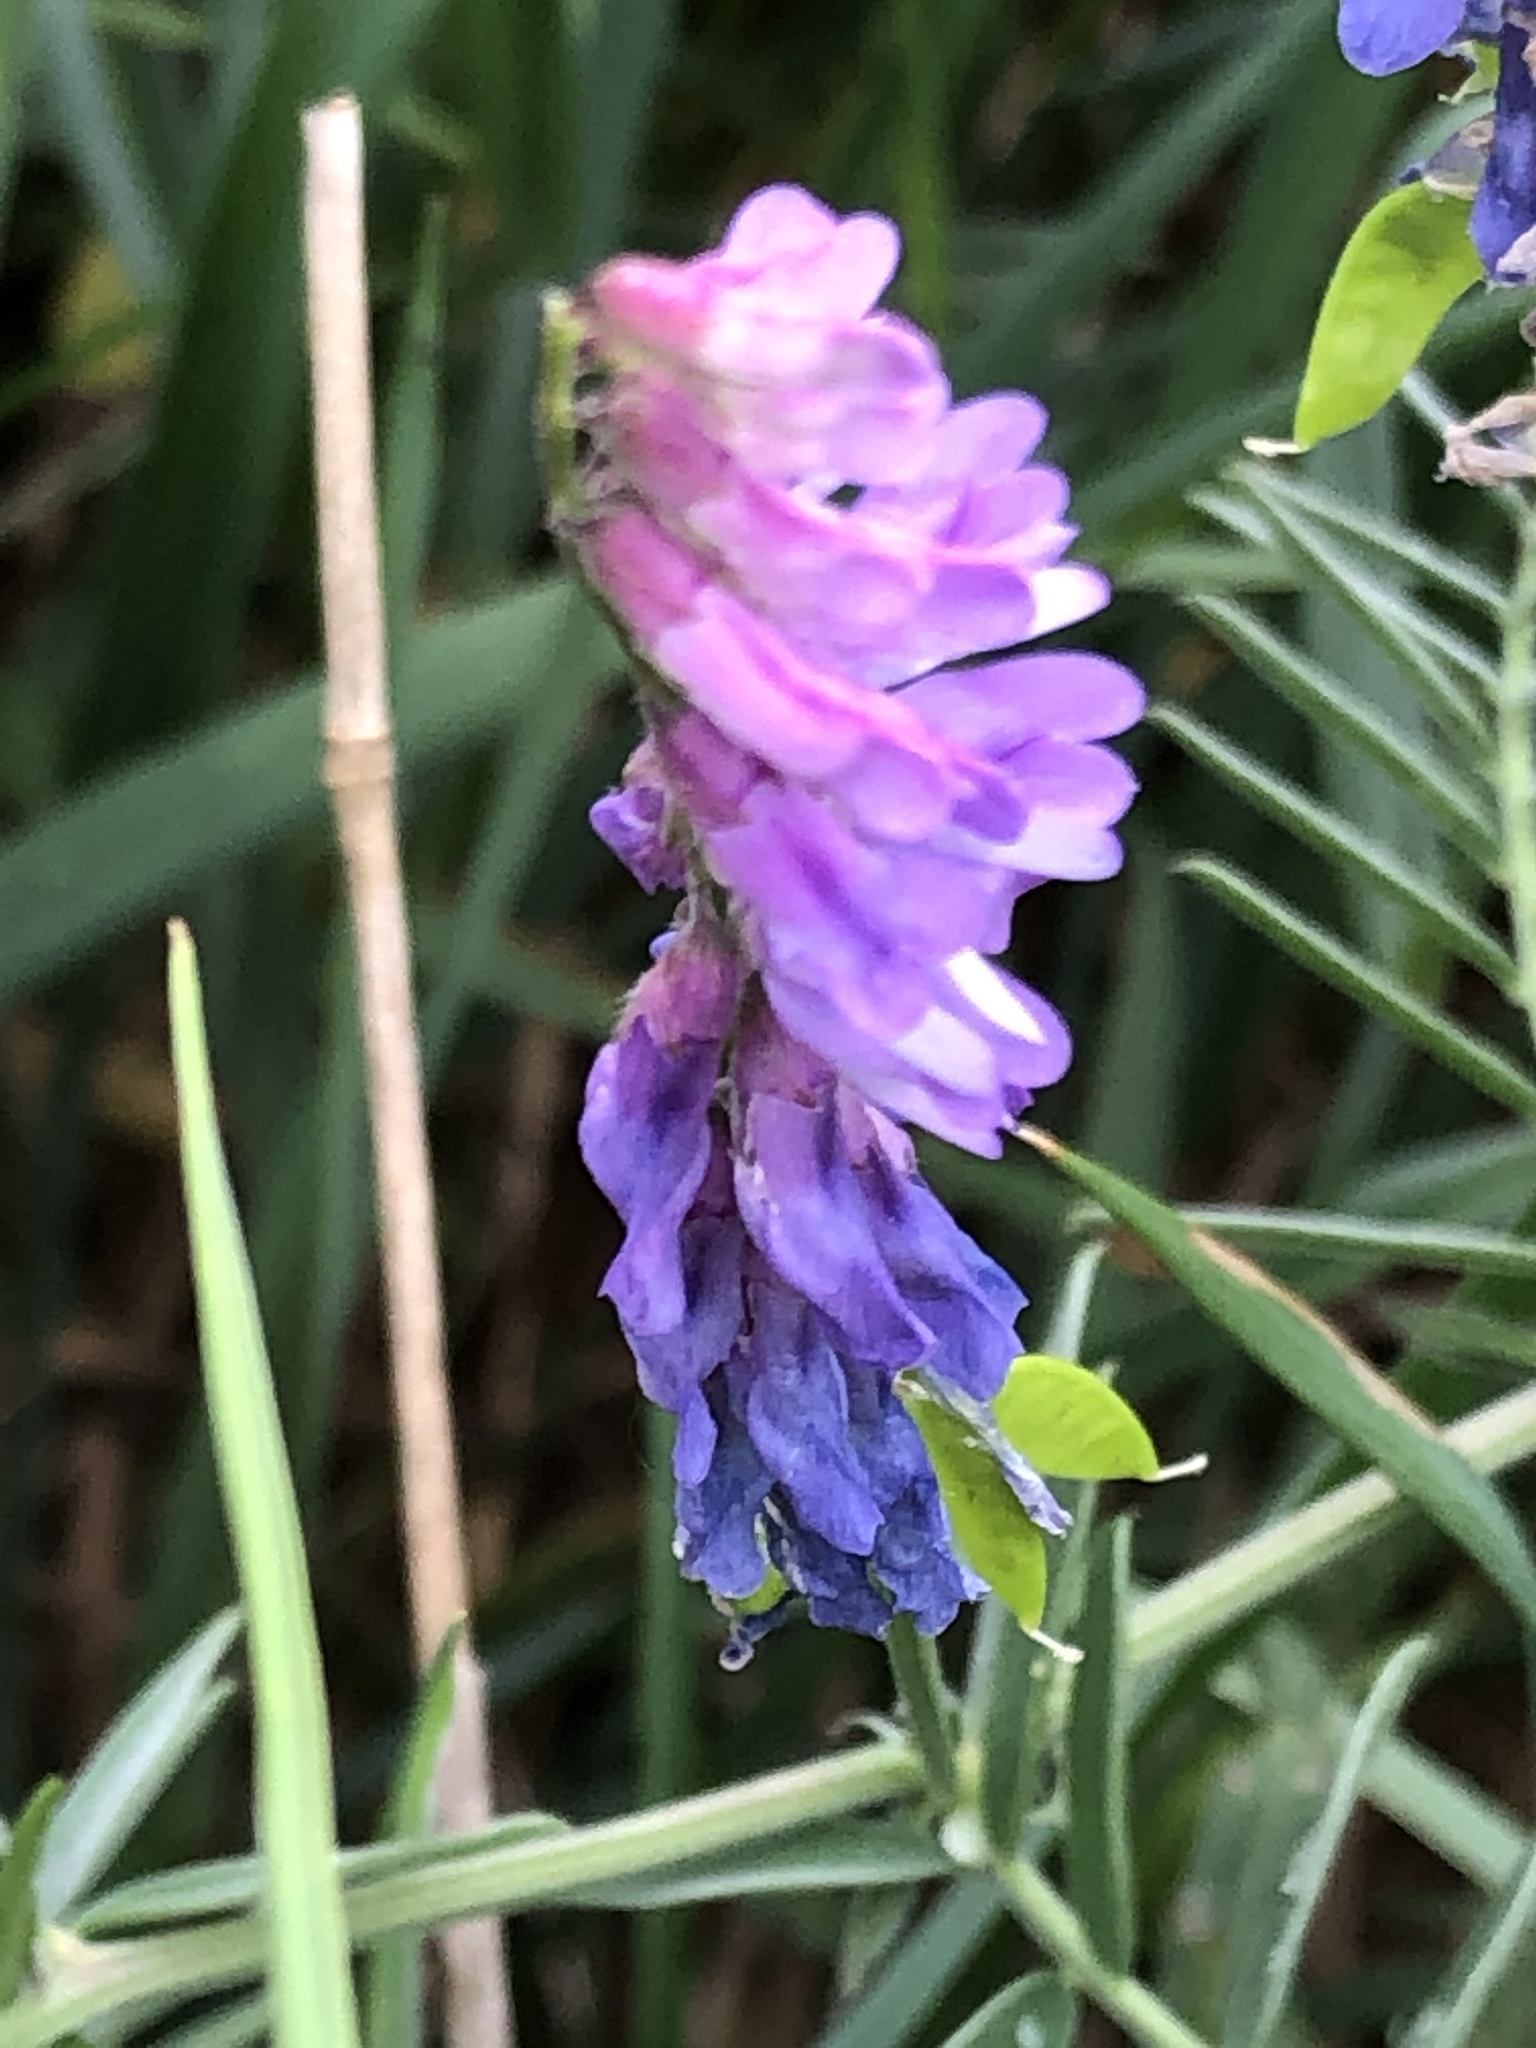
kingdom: Plantae
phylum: Tracheophyta
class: Magnoliopsida
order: Fabales
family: Fabaceae
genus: Vicia
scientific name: Vicia cracca
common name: Bird vetch
